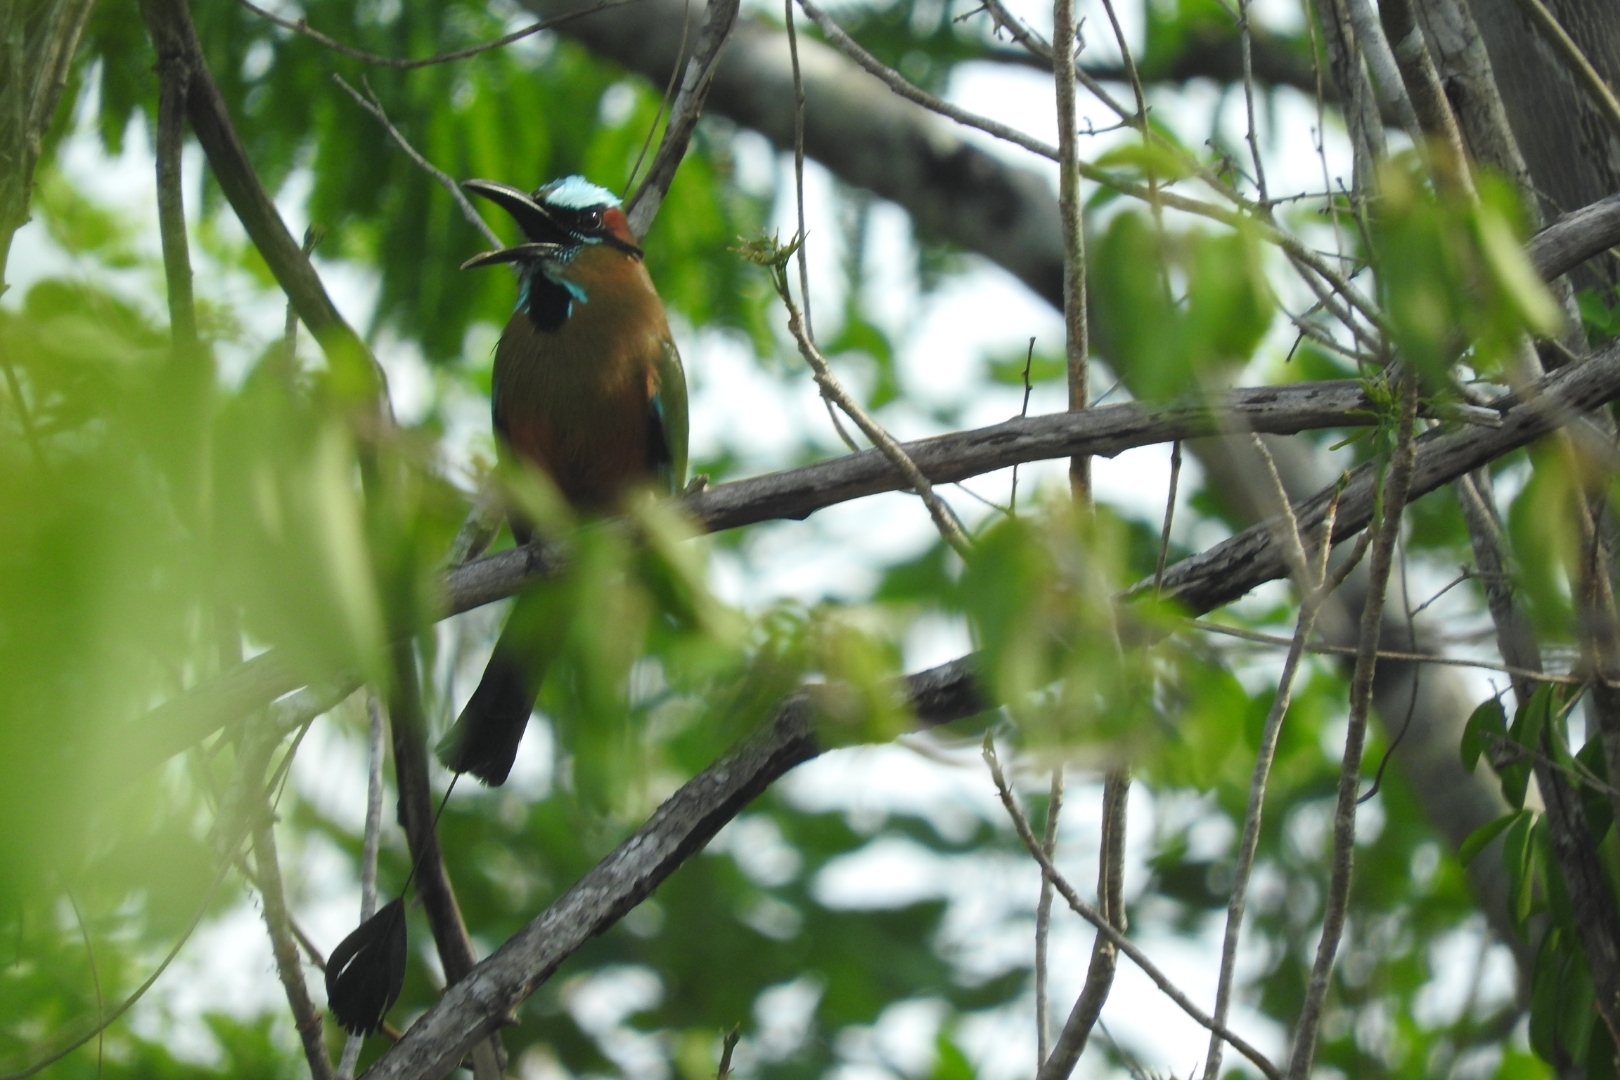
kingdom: Animalia
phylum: Chordata
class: Aves
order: Coraciiformes
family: Momotidae
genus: Eumomota
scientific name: Eumomota superciliosa
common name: Turquoise-browed motmot
